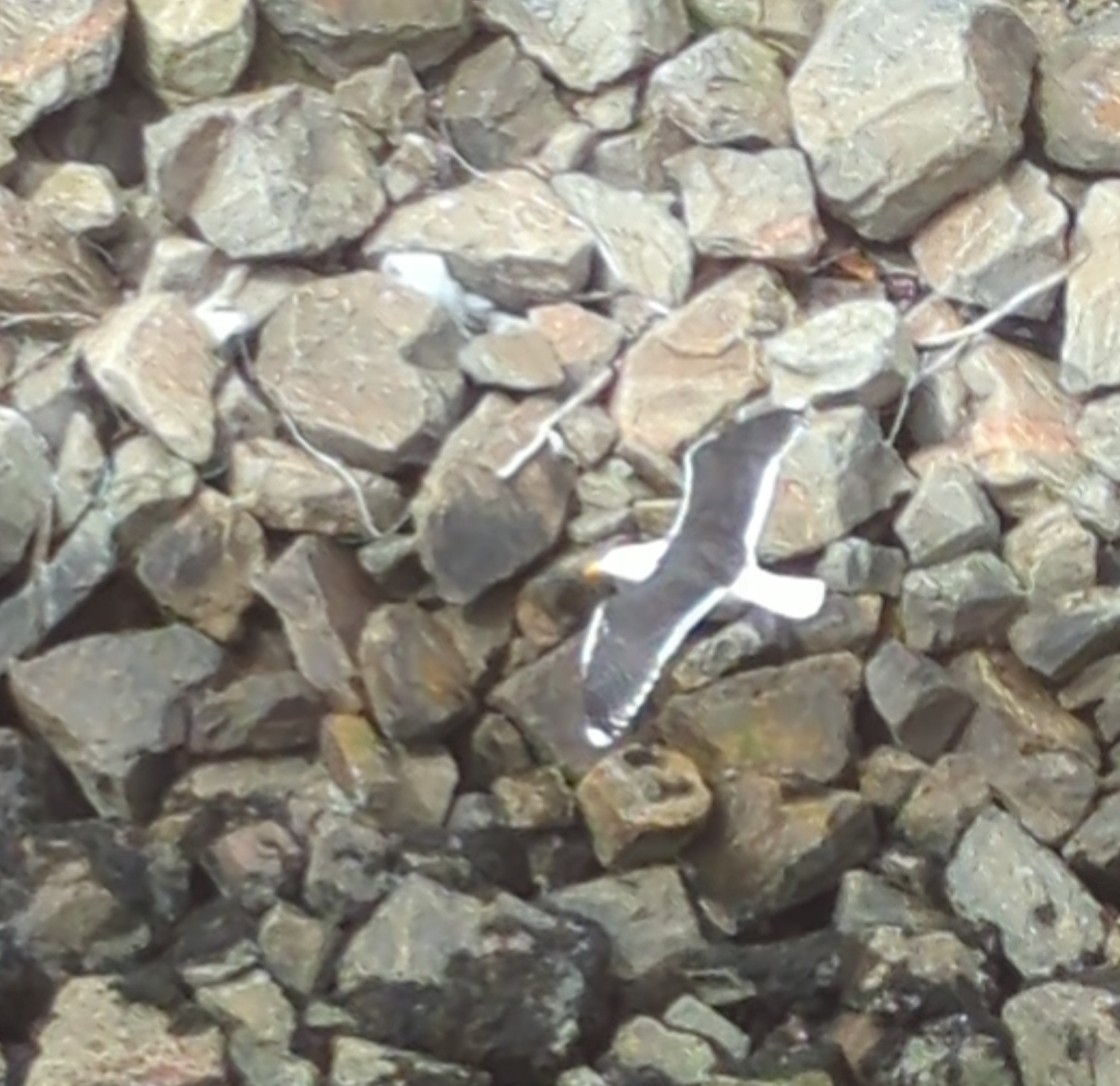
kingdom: Animalia
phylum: Chordata
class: Aves
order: Charadriiformes
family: Laridae
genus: Larus
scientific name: Larus fuscus
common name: Lesser black-backed gull
